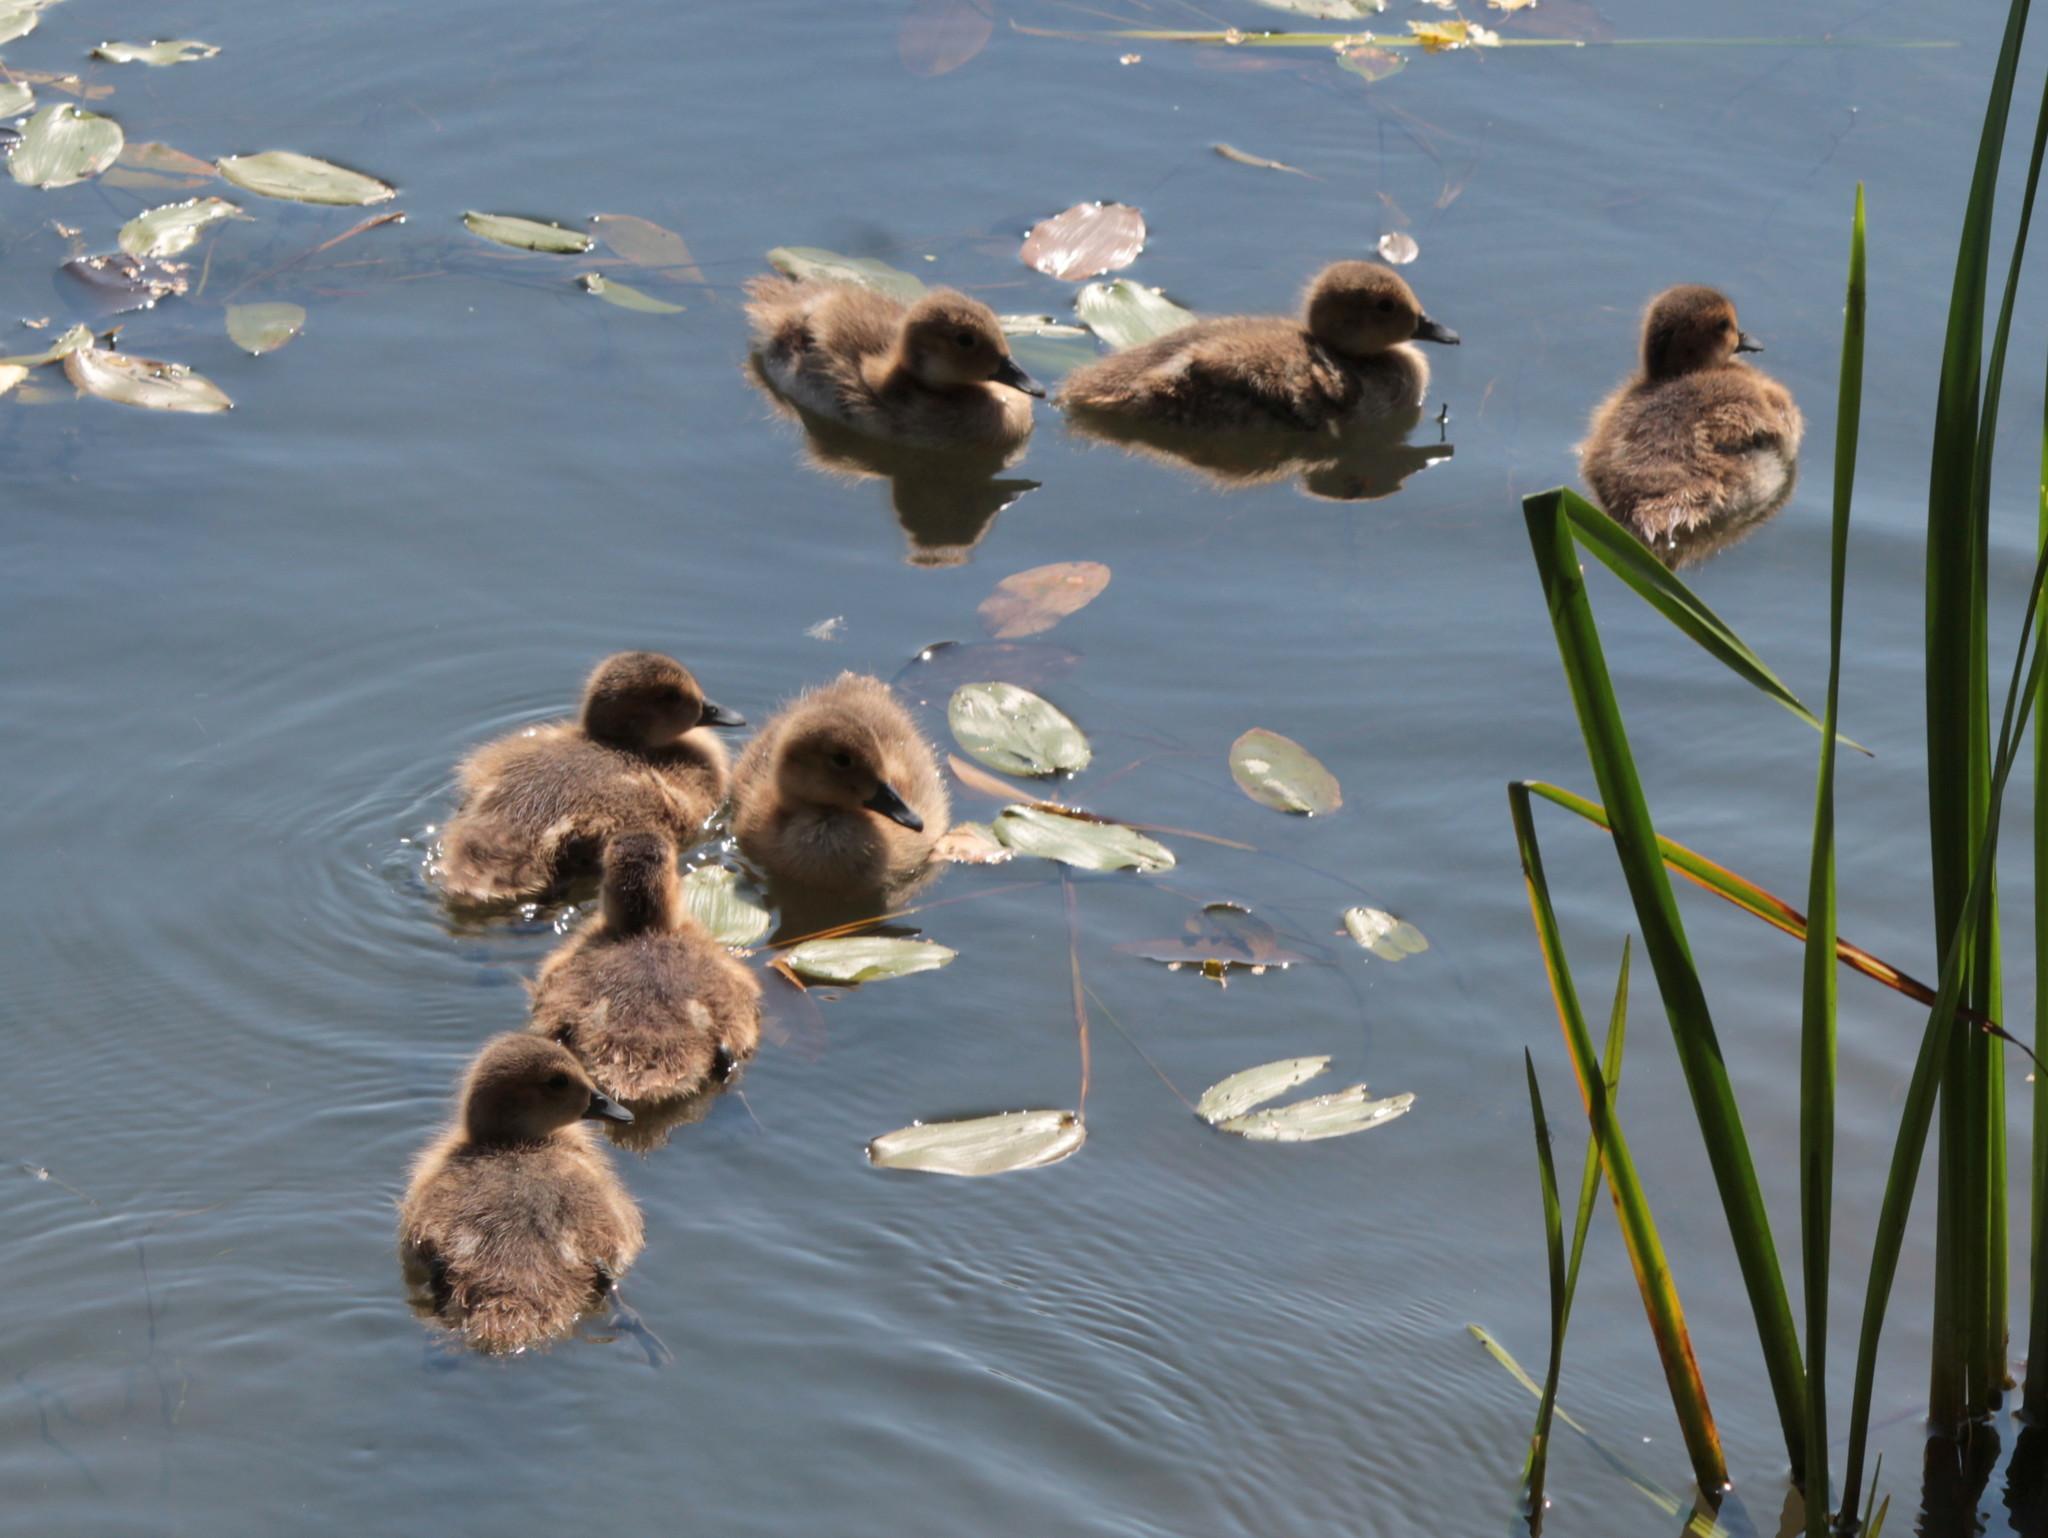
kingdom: Animalia
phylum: Chordata
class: Aves
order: Anseriformes
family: Anatidae
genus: Mareca
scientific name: Mareca americana
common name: American wigeon
